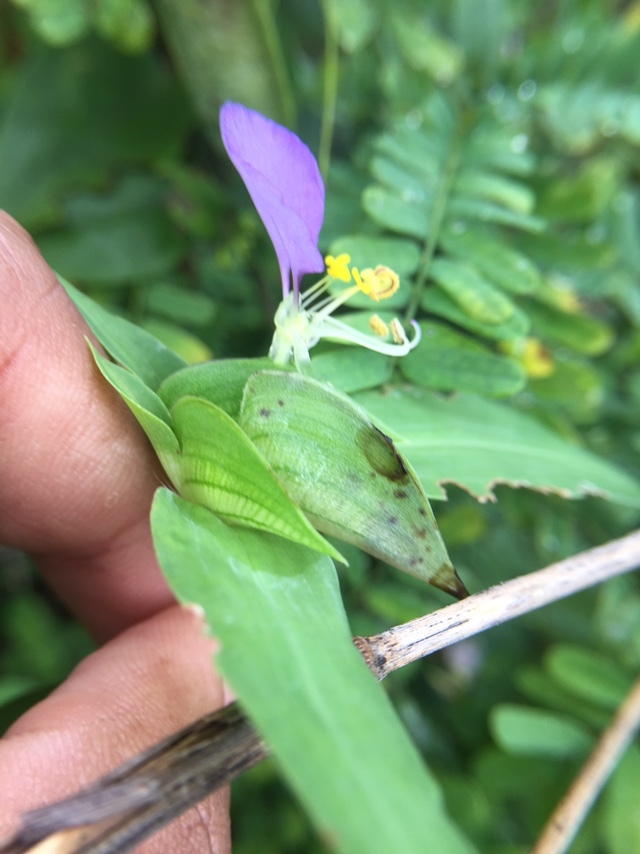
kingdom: Plantae
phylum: Tracheophyta
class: Liliopsida
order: Commelinales
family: Commelinaceae
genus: Commelina
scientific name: Commelina undulata
